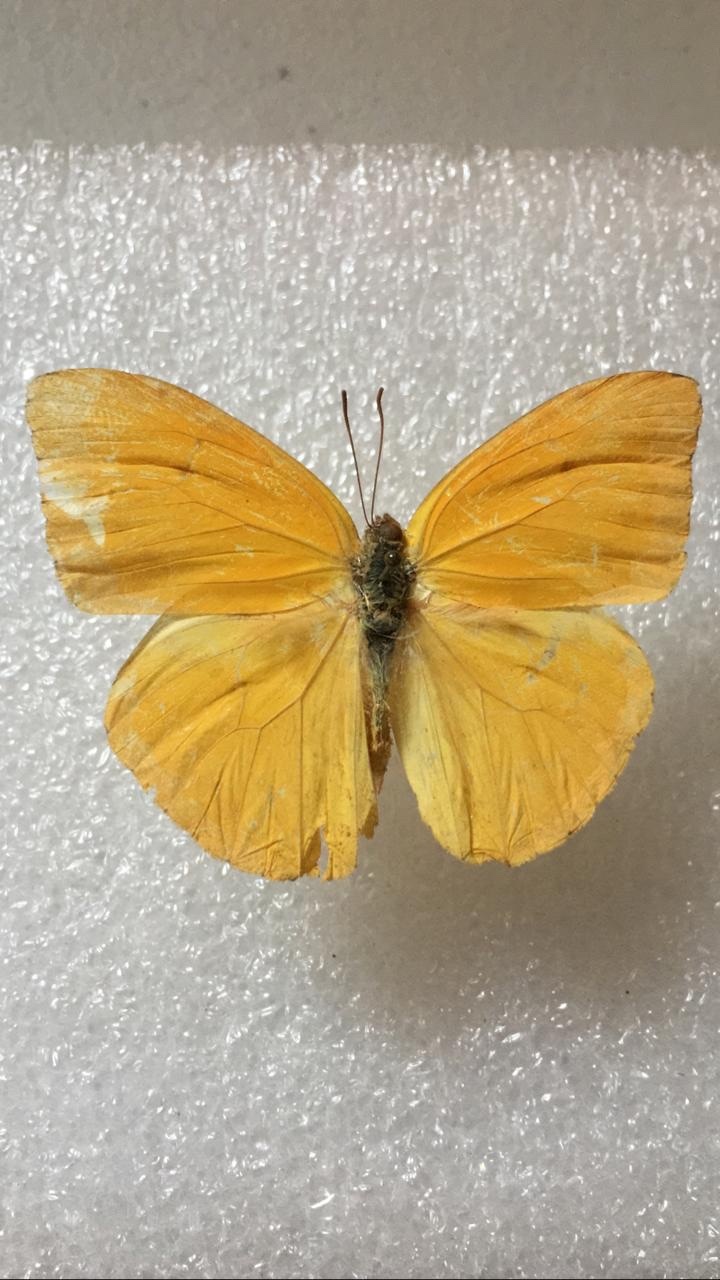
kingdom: Animalia
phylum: Arthropoda
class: Insecta
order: Lepidoptera
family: Pieridae
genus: Phoebis
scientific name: Phoebis argante
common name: Apricot sulphur
